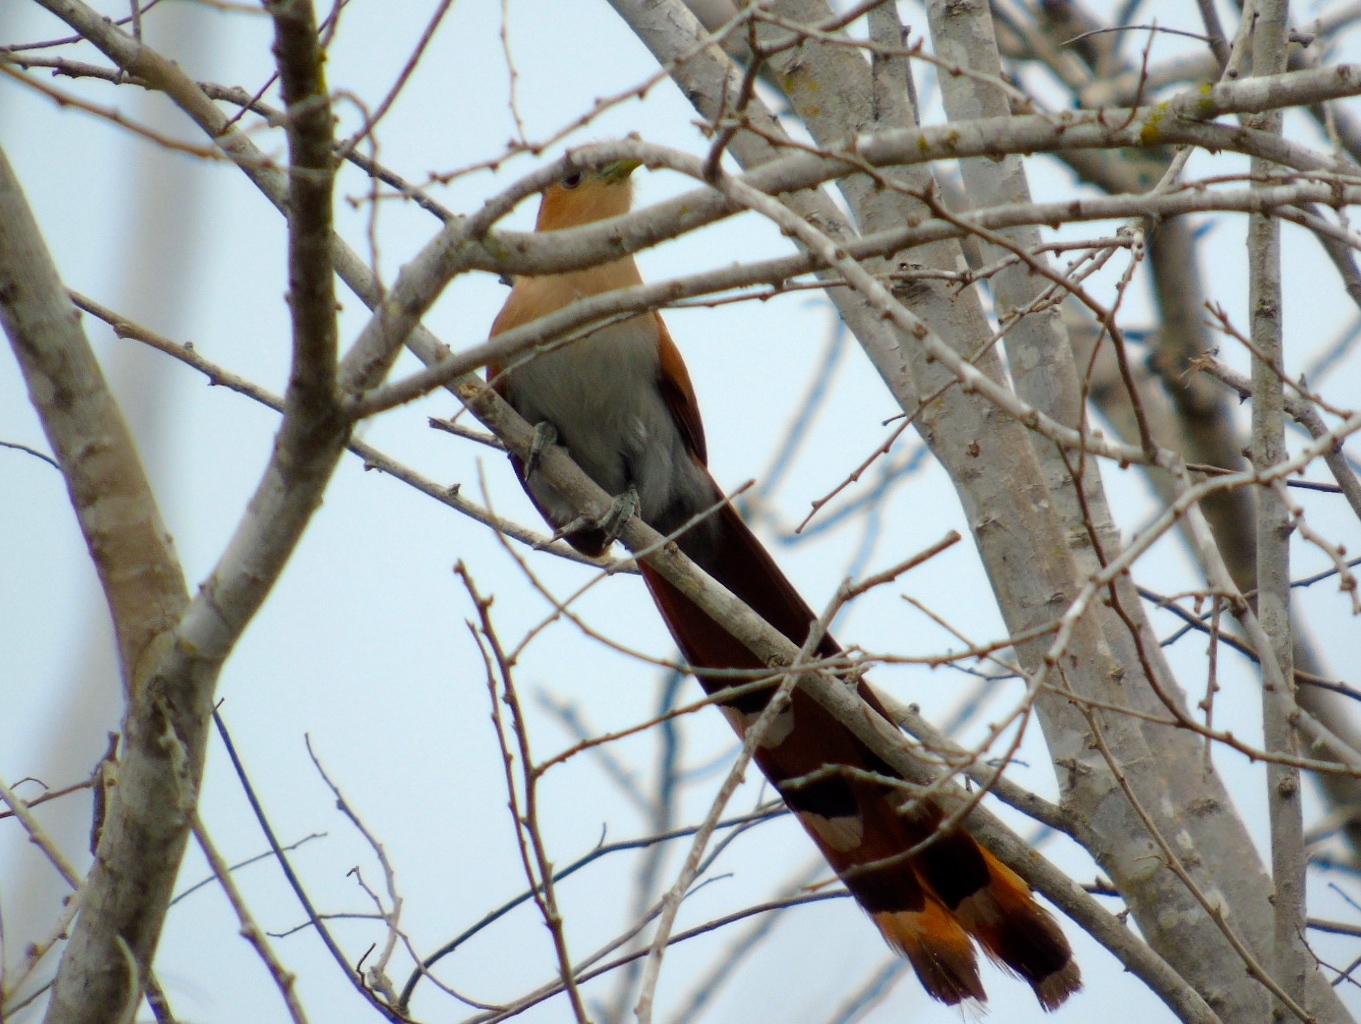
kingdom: Animalia
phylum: Chordata
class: Aves
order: Cuculiformes
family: Cuculidae
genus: Piaya
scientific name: Piaya cayana
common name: Squirrel cuckoo
